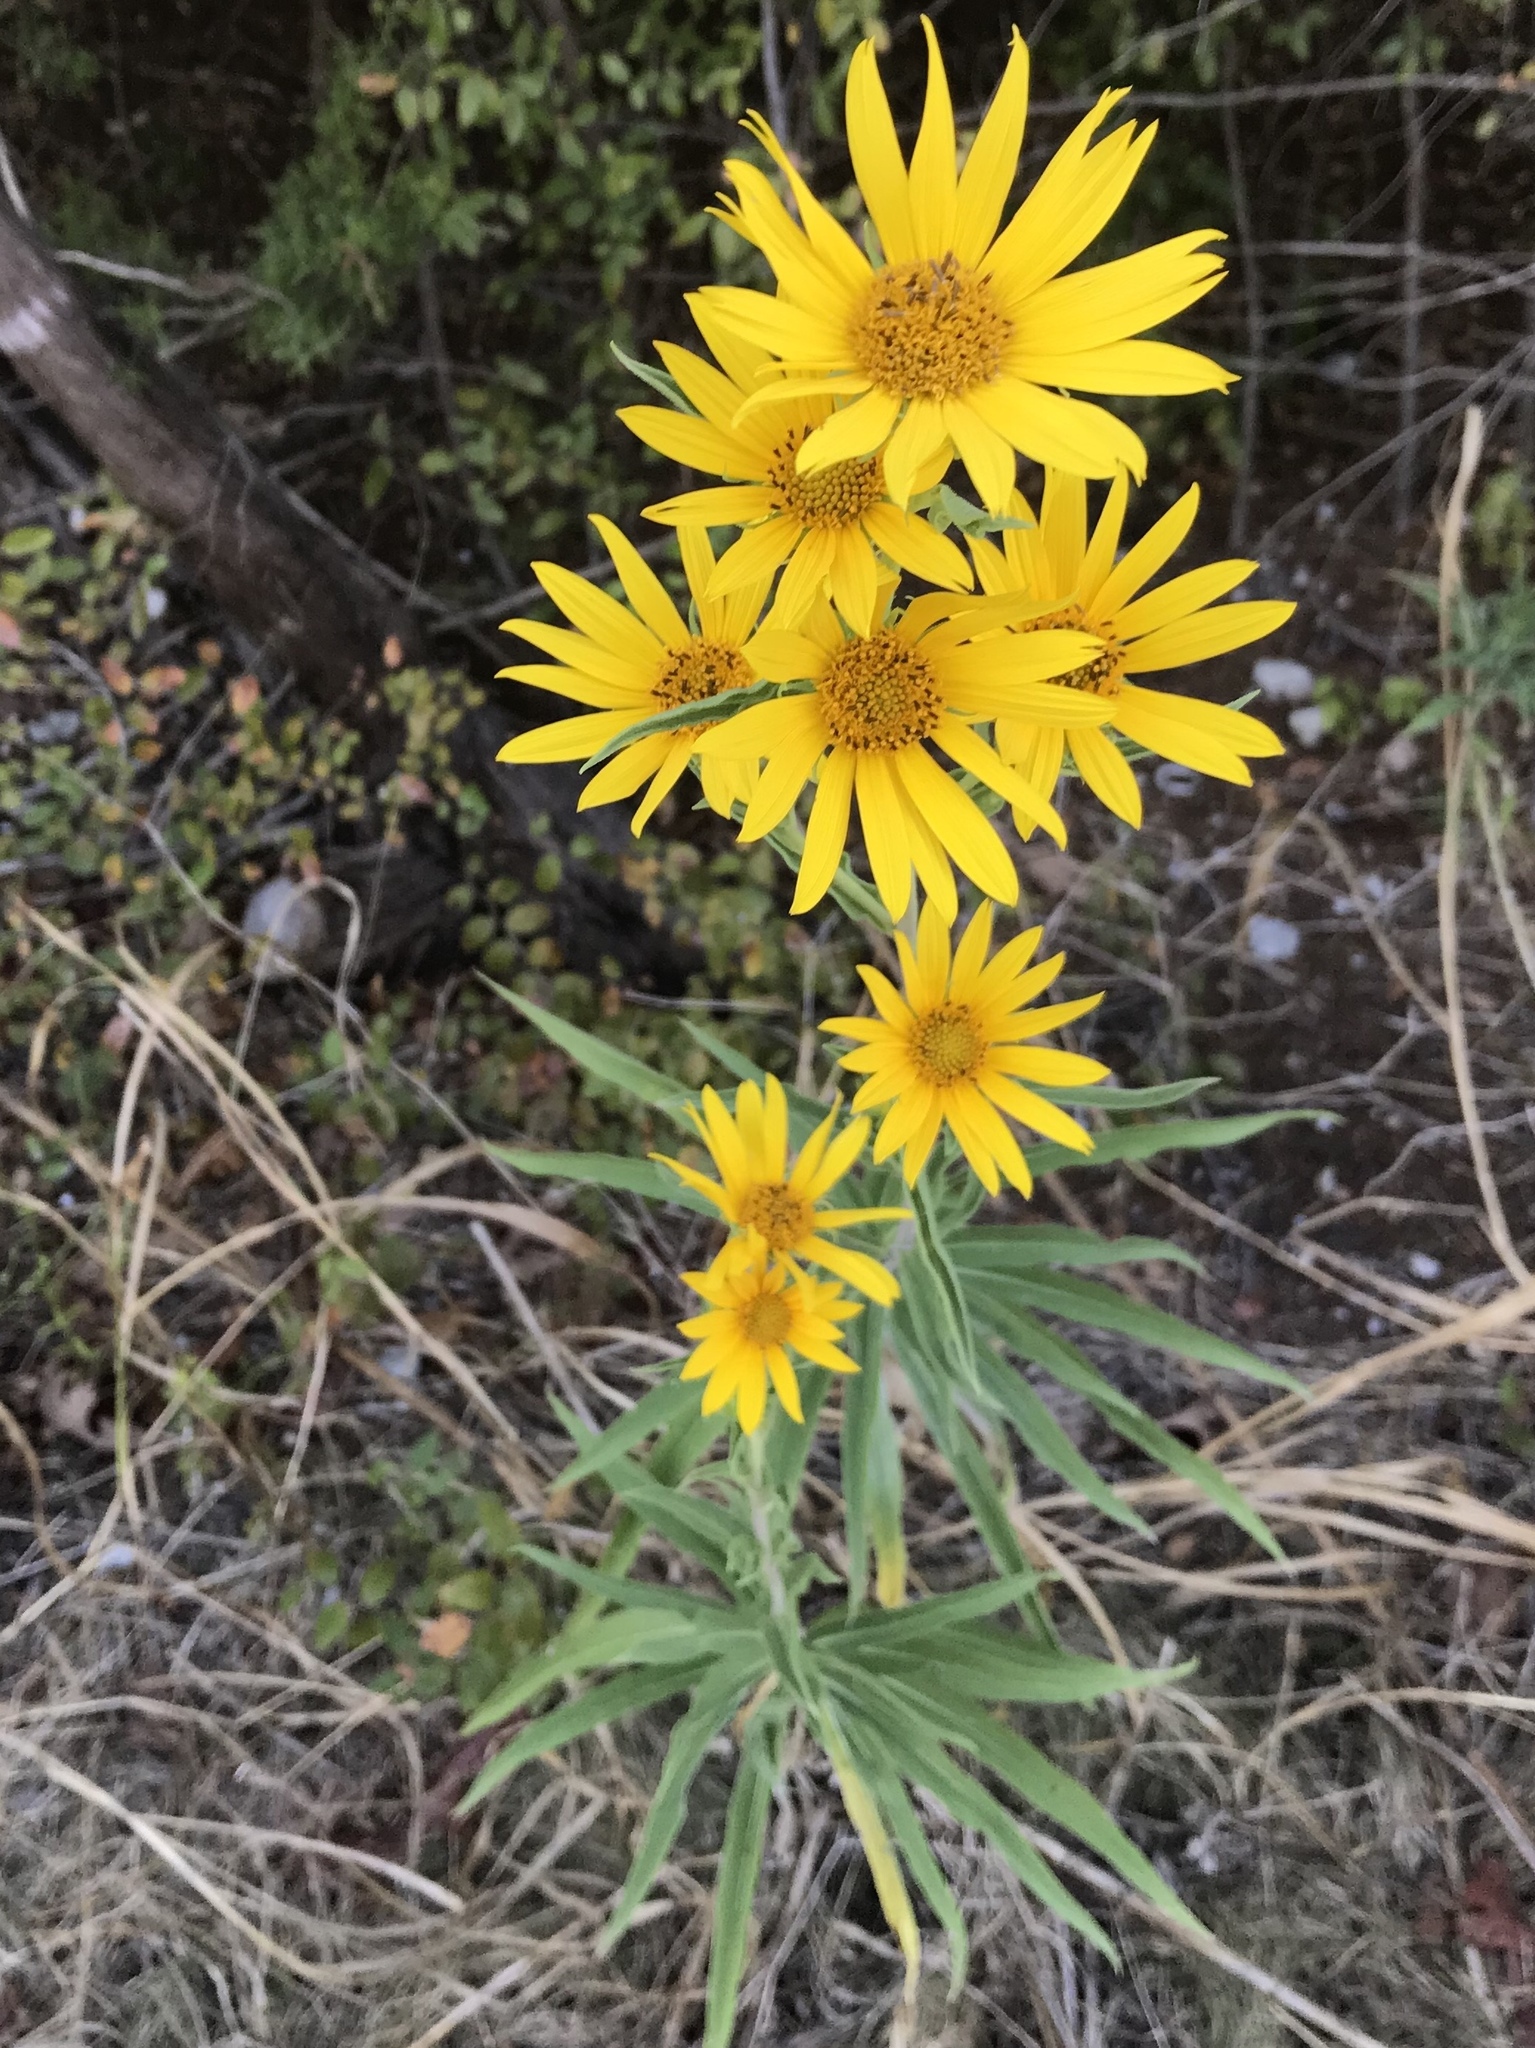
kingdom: Plantae
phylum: Tracheophyta
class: Magnoliopsida
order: Asterales
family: Asteraceae
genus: Helianthus
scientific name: Helianthus maximiliani
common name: Maximilian's sunflower
